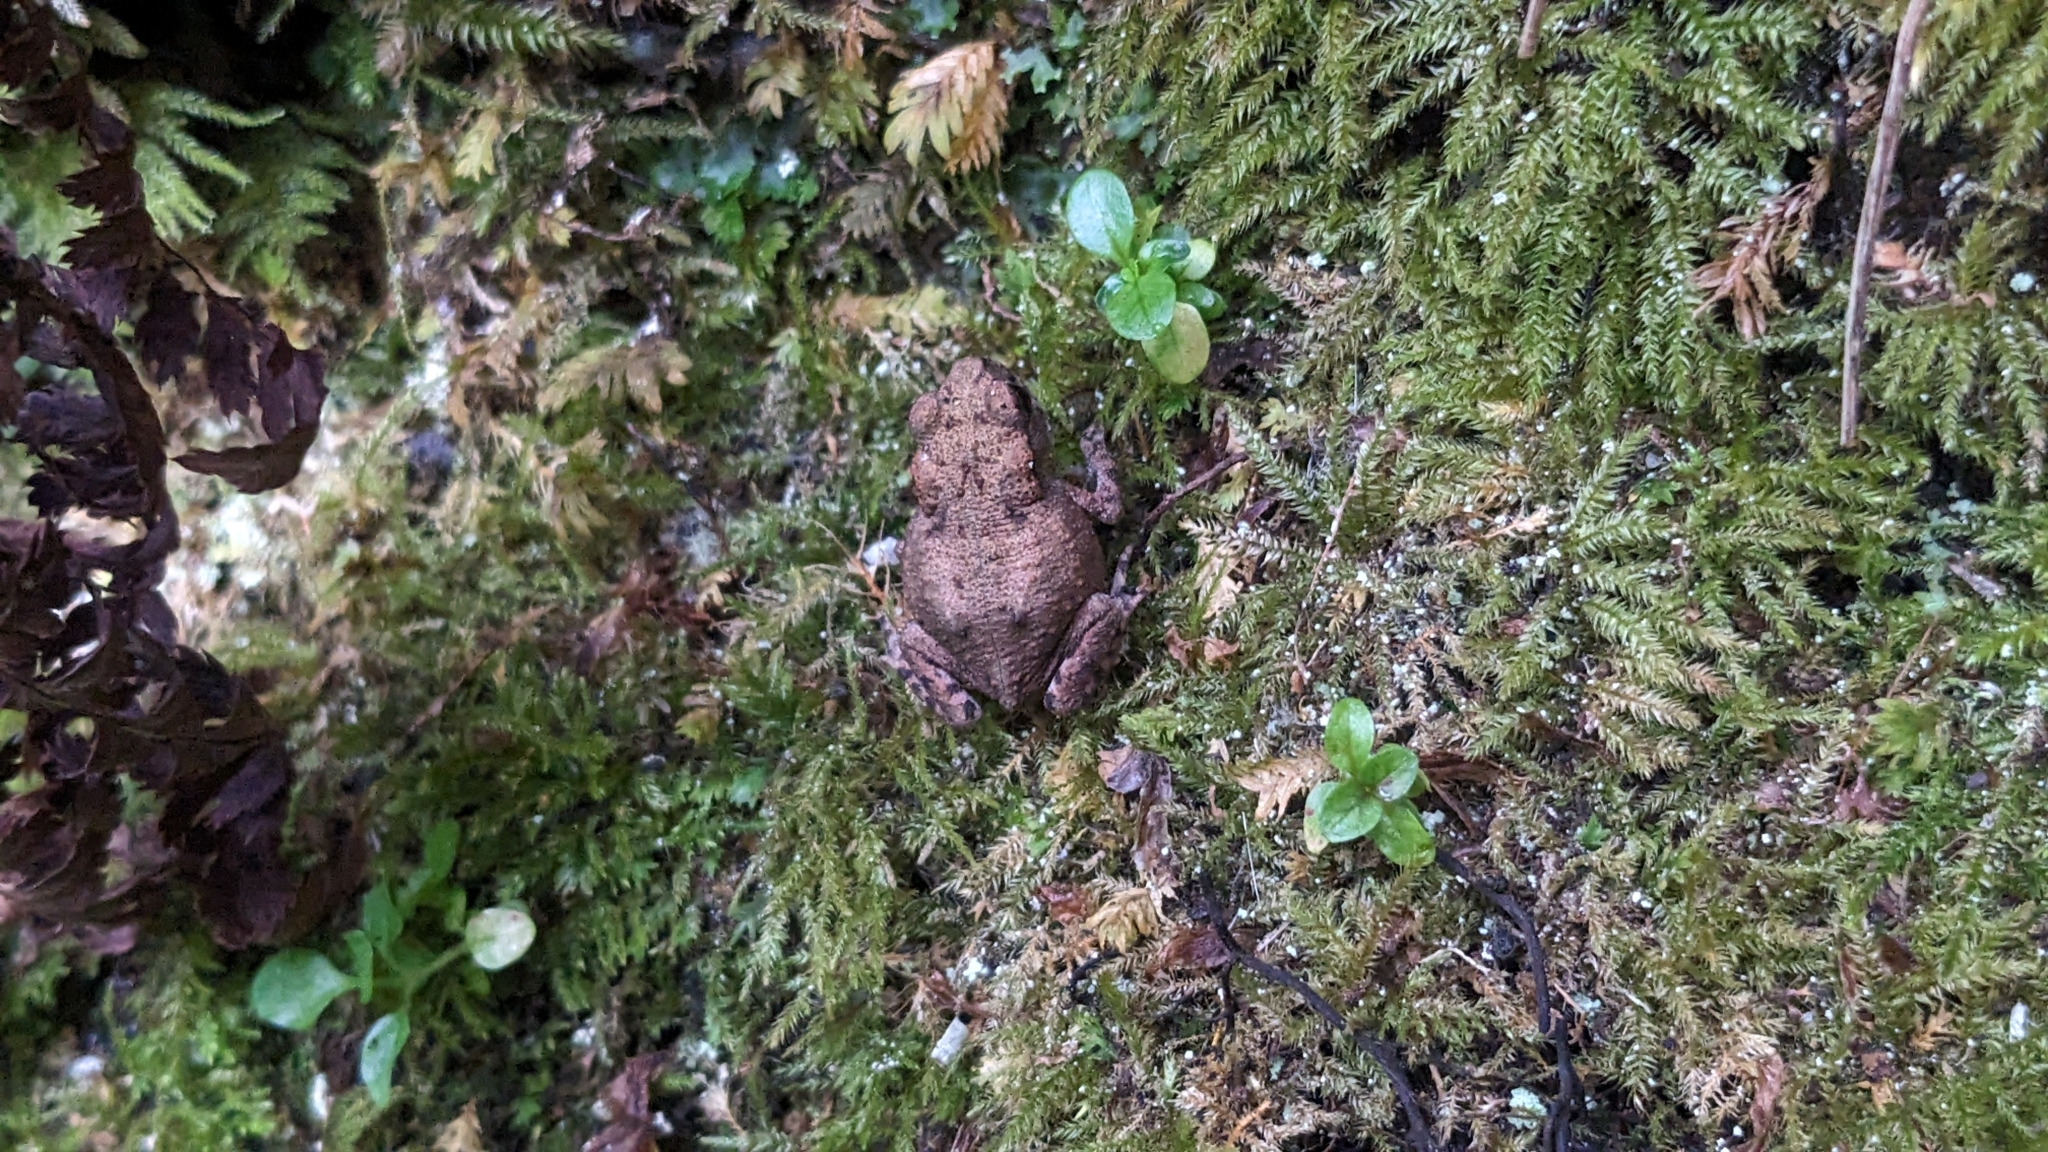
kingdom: Animalia
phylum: Chordata
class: Amphibia
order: Anura
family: Bufonidae
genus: Bufo
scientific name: Bufo bufo
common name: Common toad
